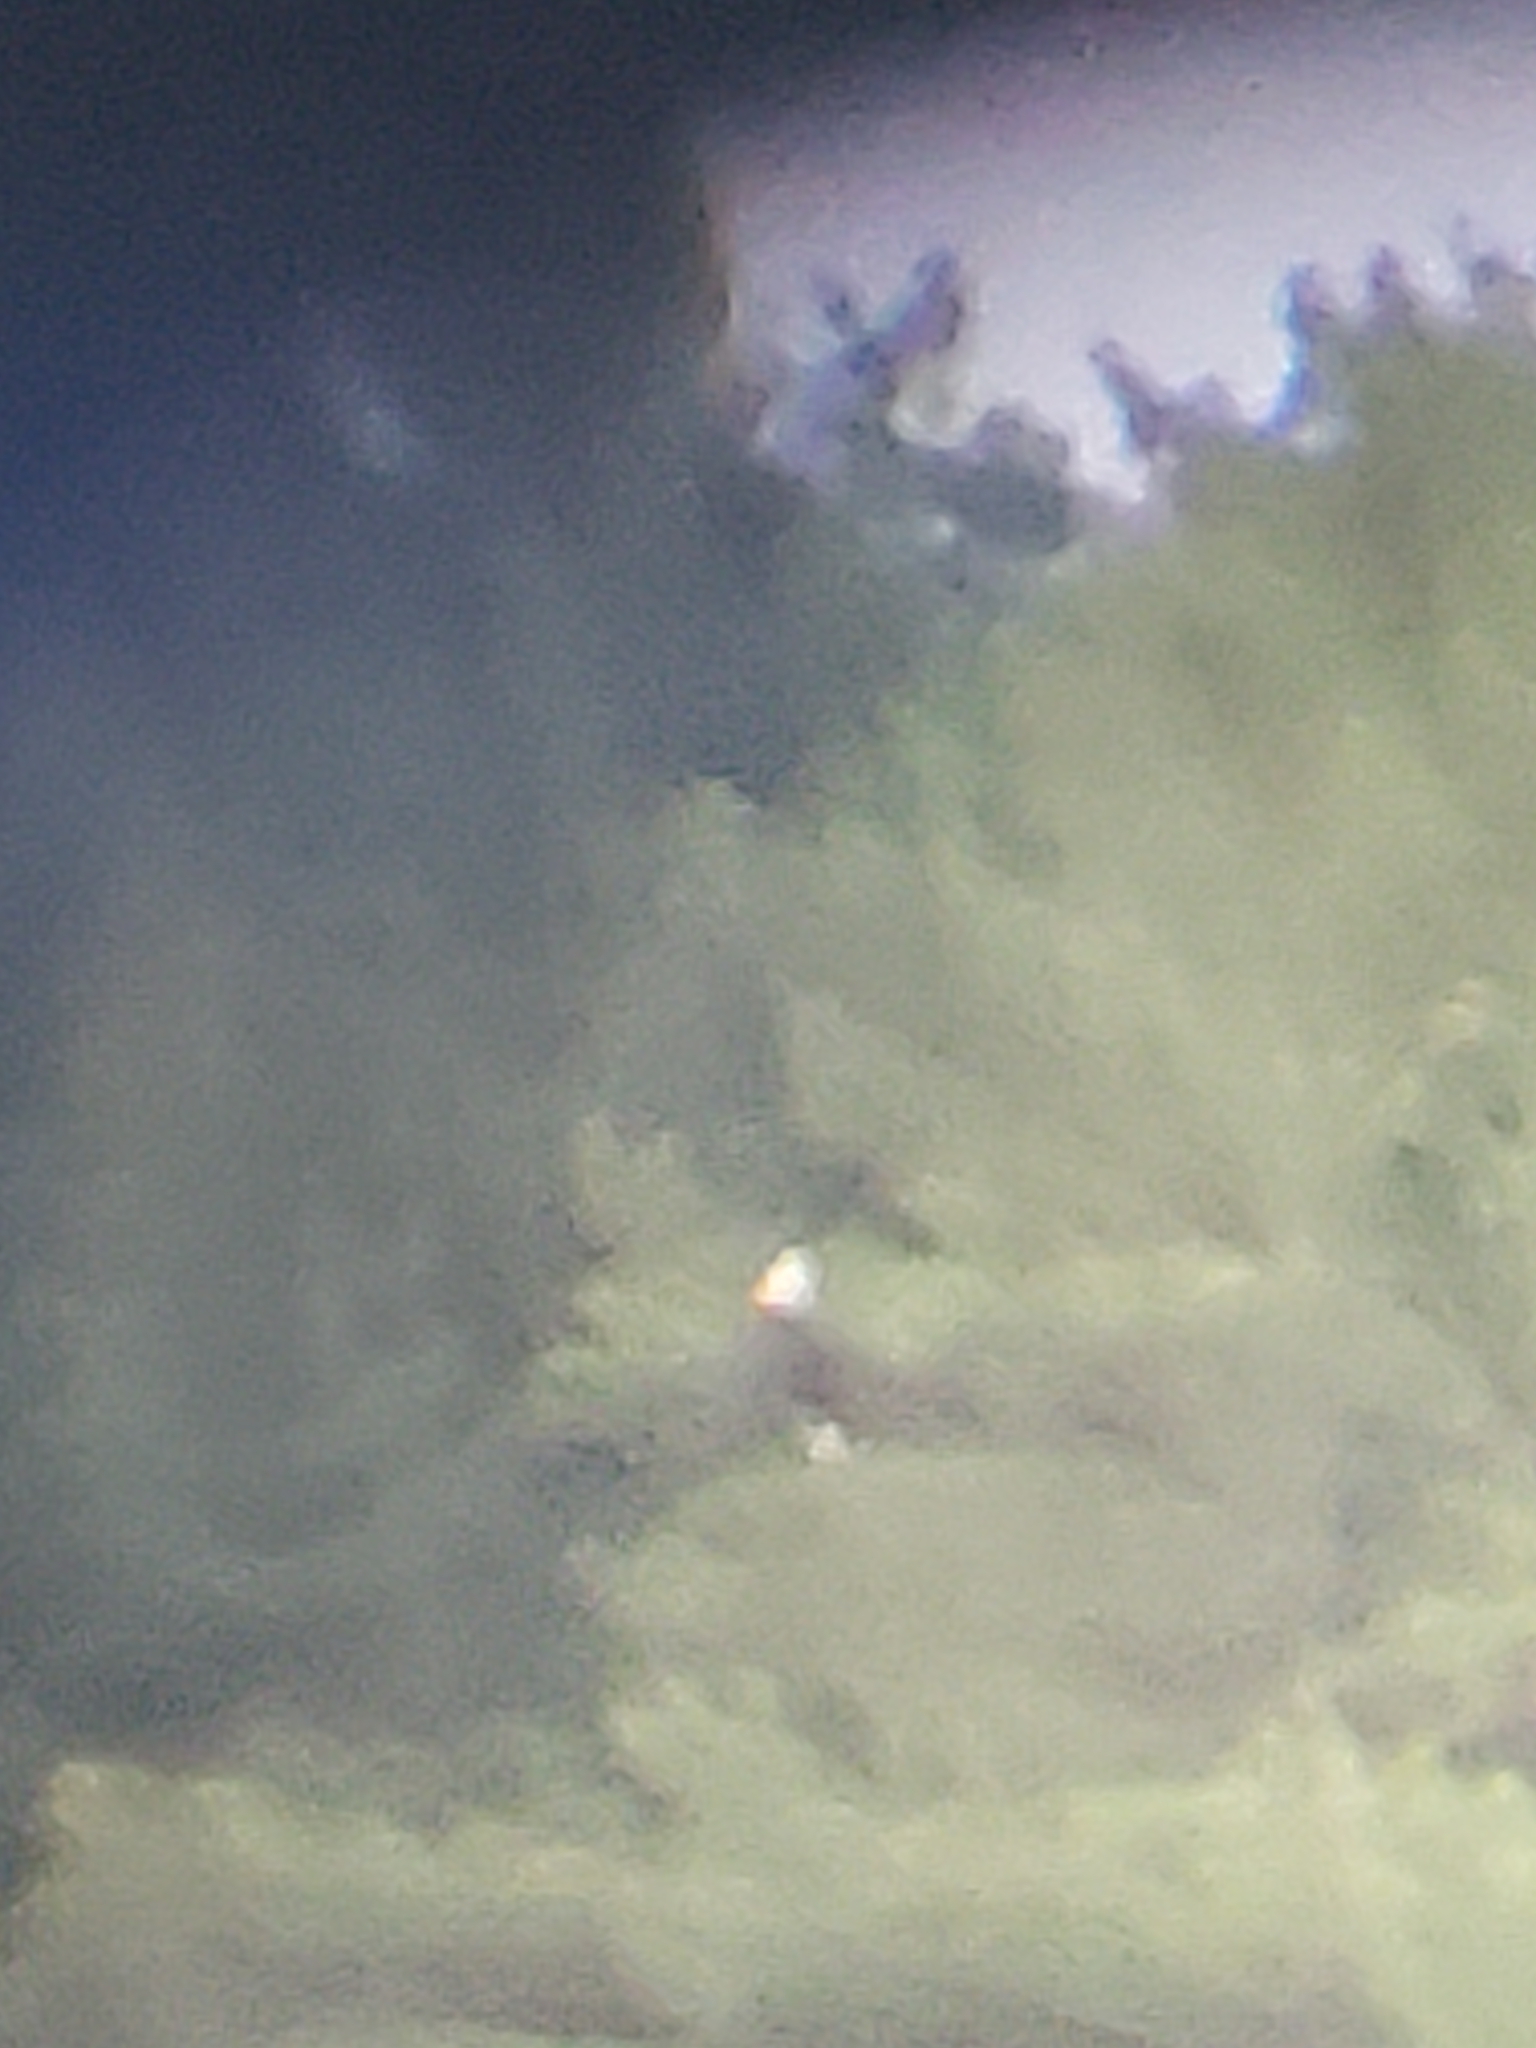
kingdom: Animalia
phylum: Chordata
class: Aves
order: Accipitriformes
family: Accipitridae
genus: Haliaeetus
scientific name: Haliaeetus leucocephalus
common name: Bald eagle
